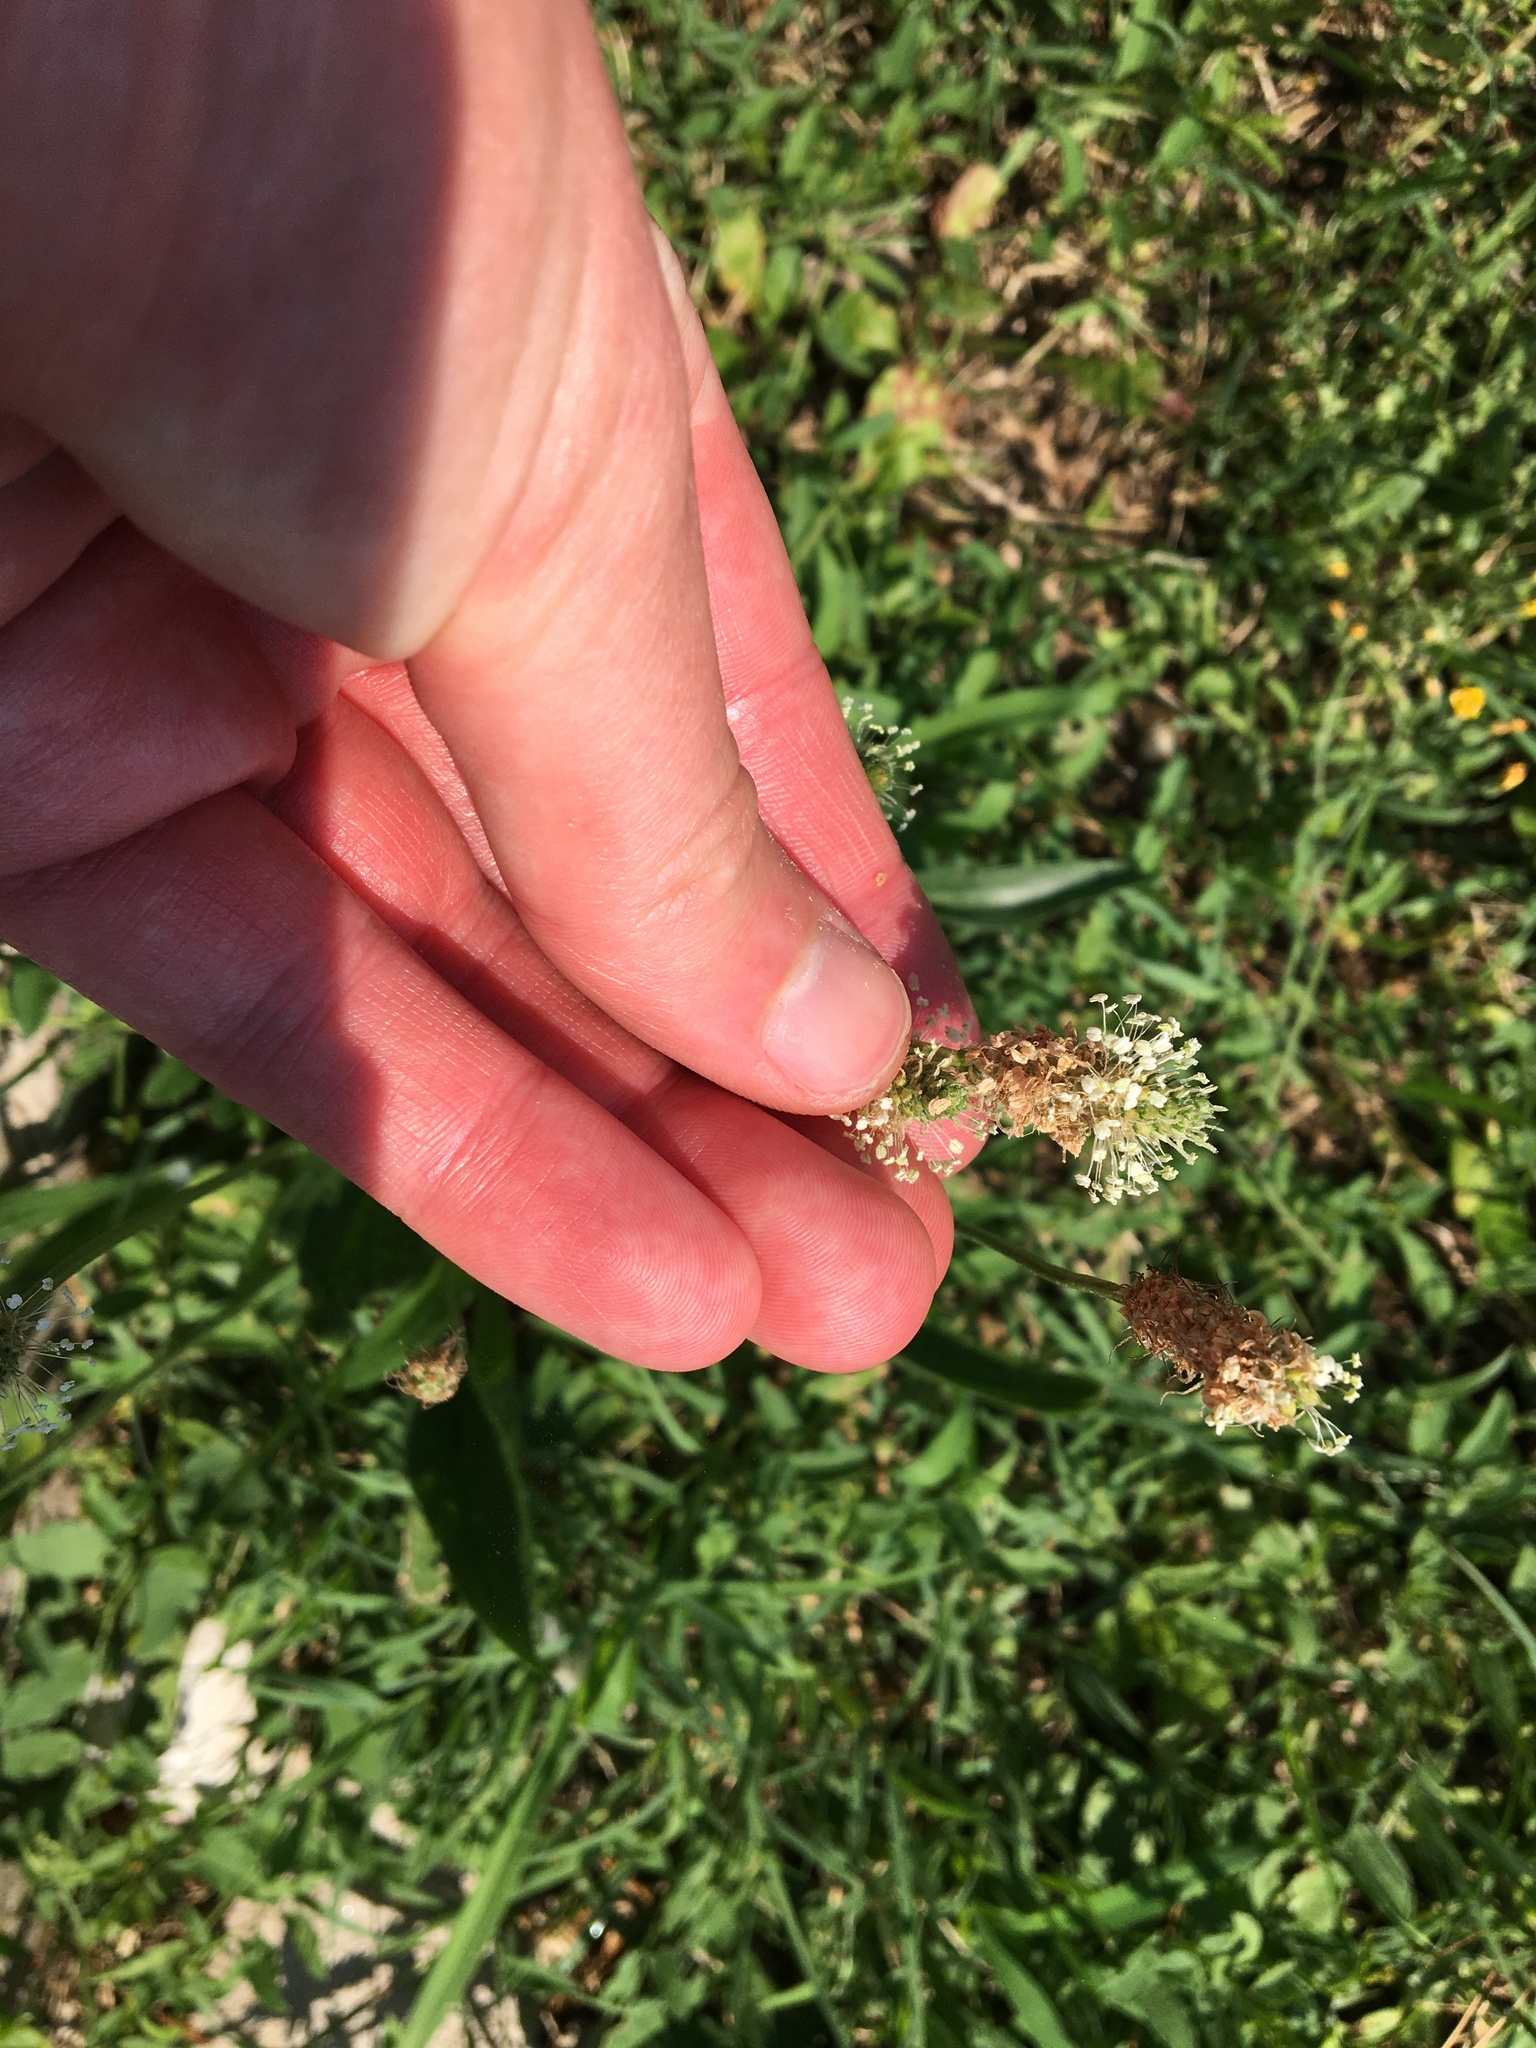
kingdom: Plantae
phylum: Tracheophyta
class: Magnoliopsida
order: Lamiales
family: Plantaginaceae
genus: Plantago
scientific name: Plantago lanceolata
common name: Ribwort plantain
